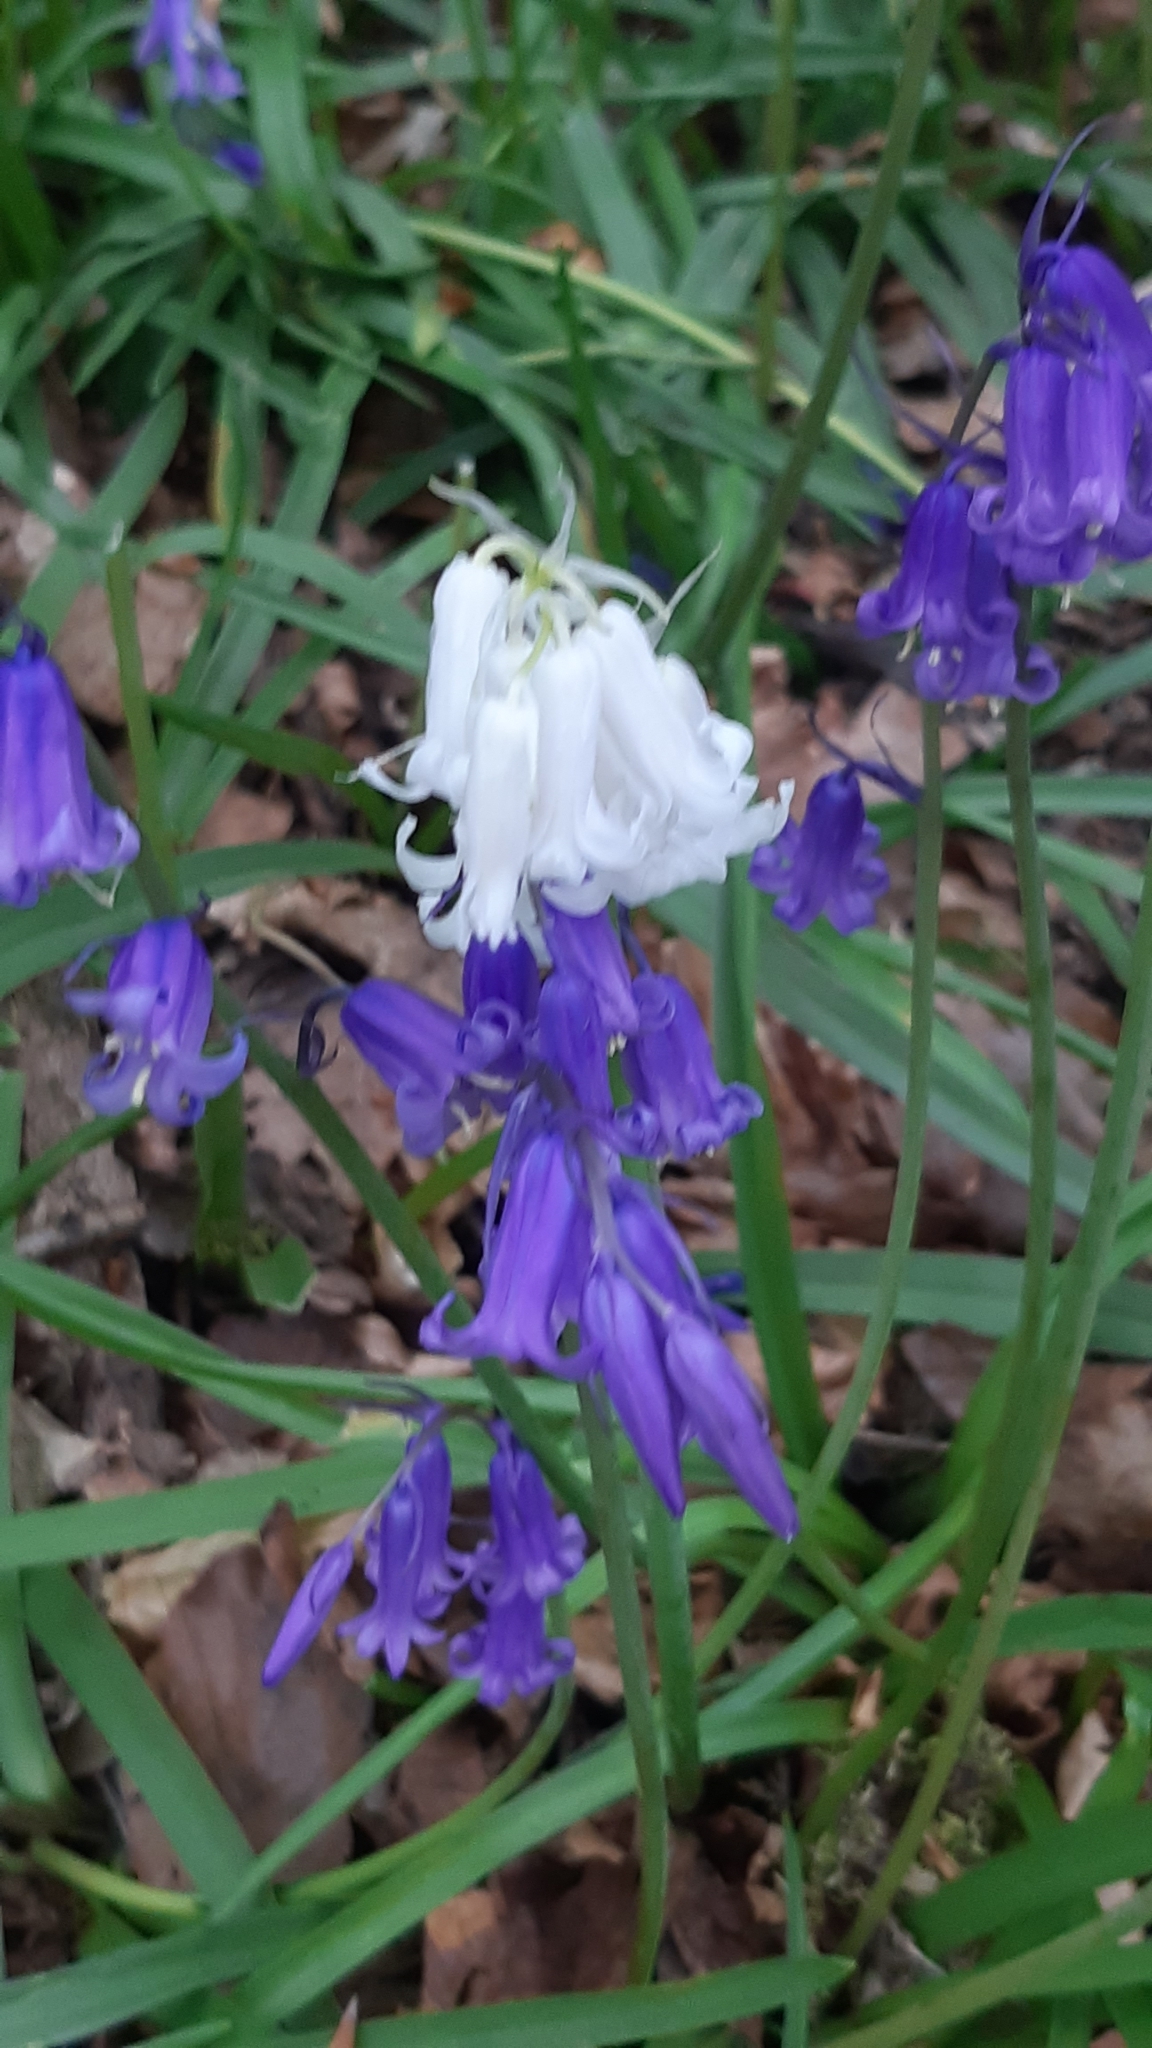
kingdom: Plantae
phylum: Tracheophyta
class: Liliopsida
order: Asparagales
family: Asparagaceae
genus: Hyacinthoides
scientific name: Hyacinthoides non-scripta
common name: Bluebell
